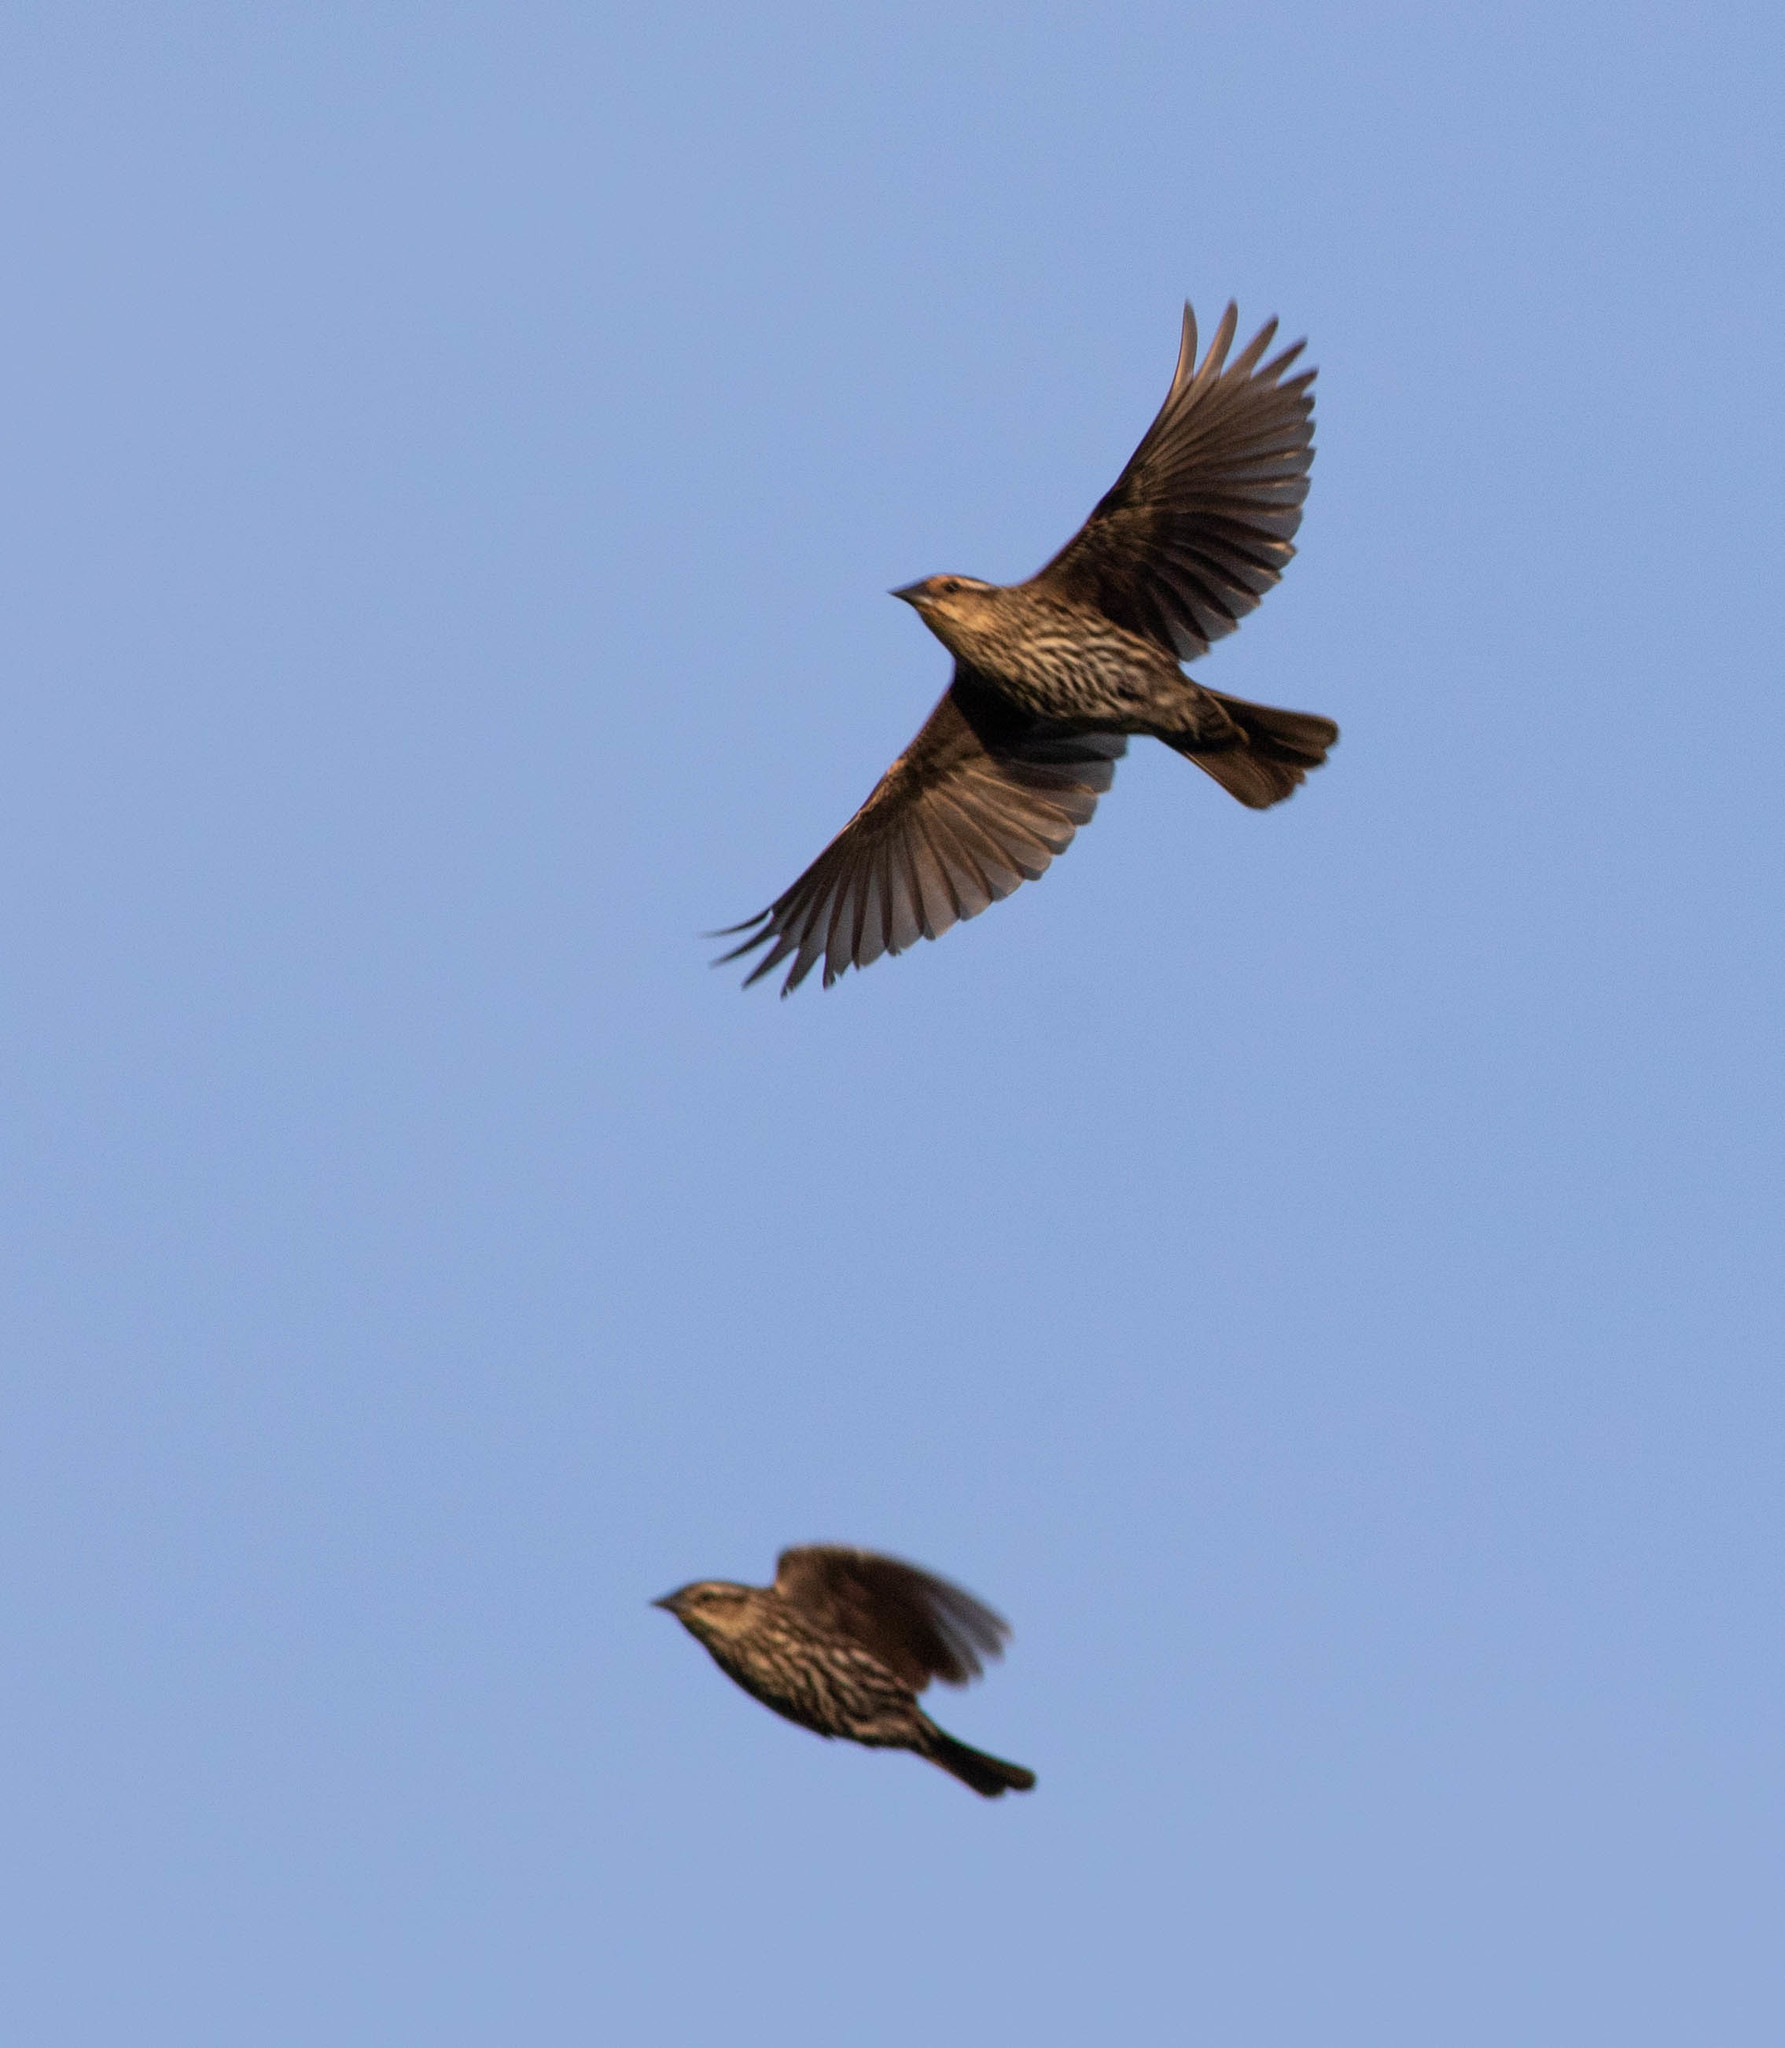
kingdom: Animalia
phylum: Chordata
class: Aves
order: Passeriformes
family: Icteridae
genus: Agelaius
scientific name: Agelaius phoeniceus
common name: Red-winged blackbird
